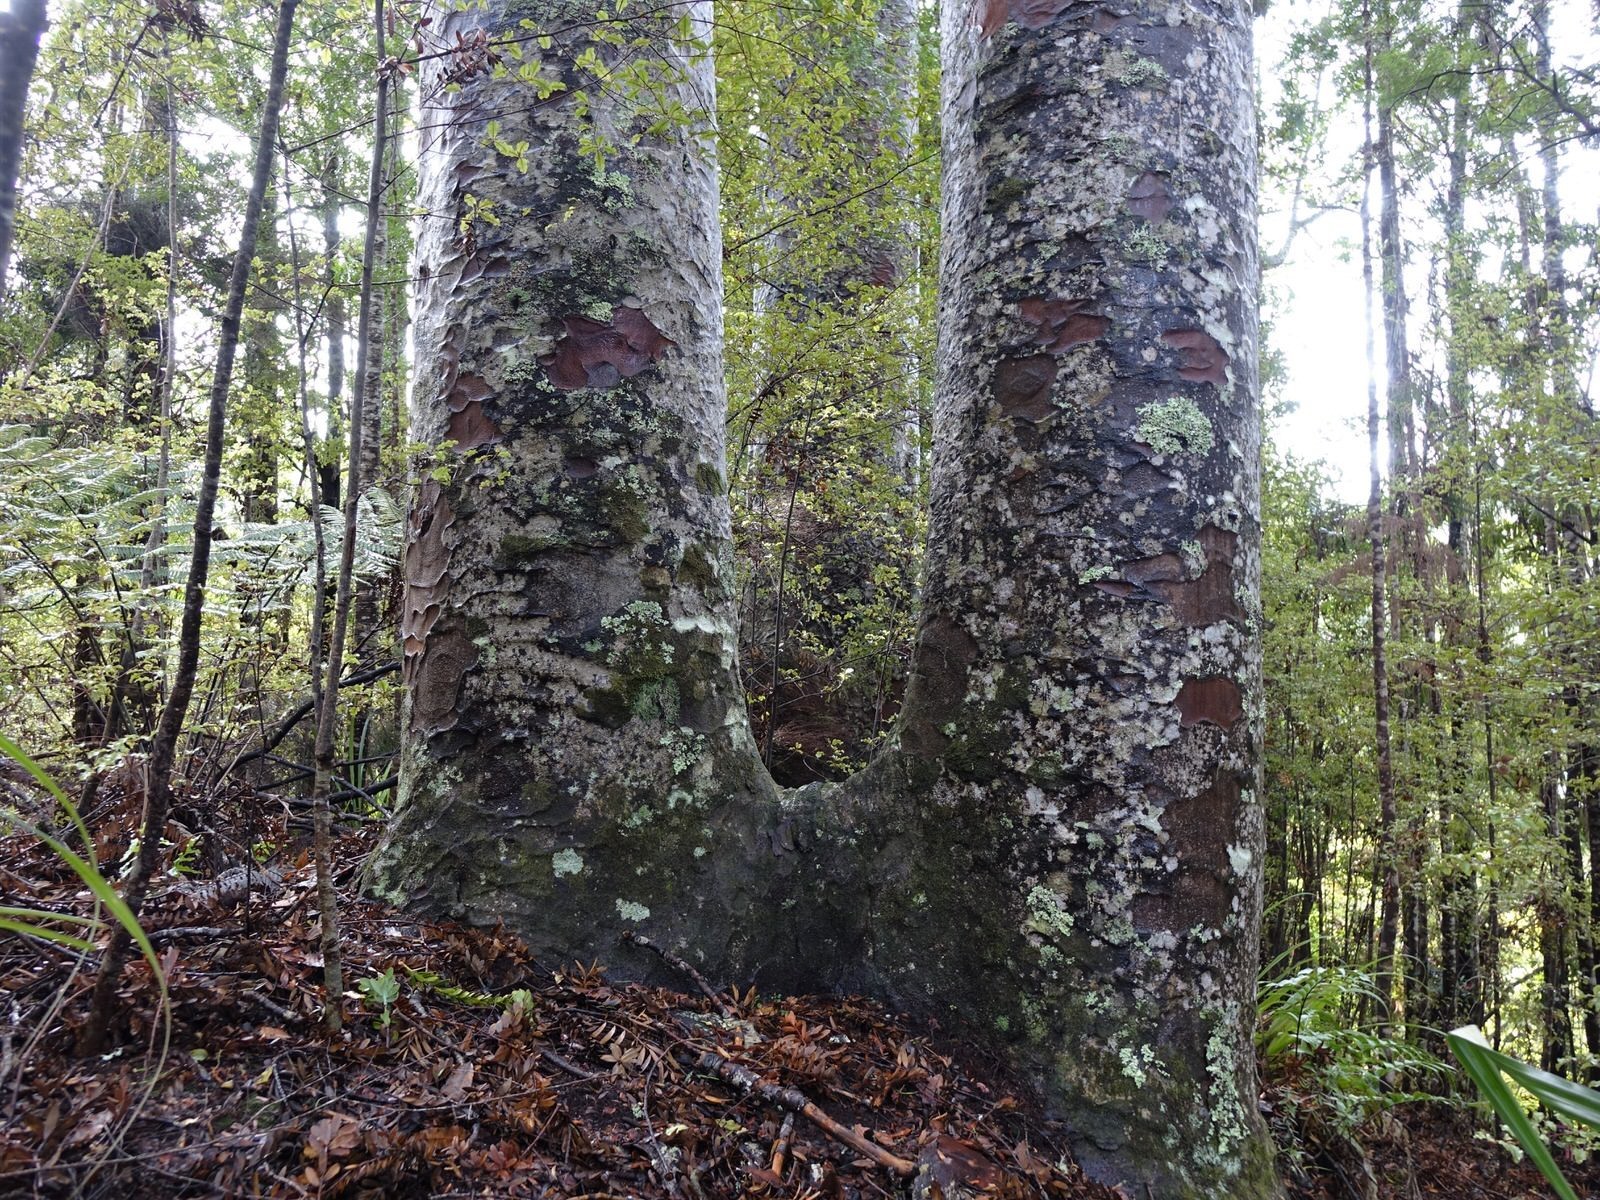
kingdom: Plantae
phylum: Tracheophyta
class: Pinopsida
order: Pinales
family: Araucariaceae
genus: Agathis
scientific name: Agathis australis
